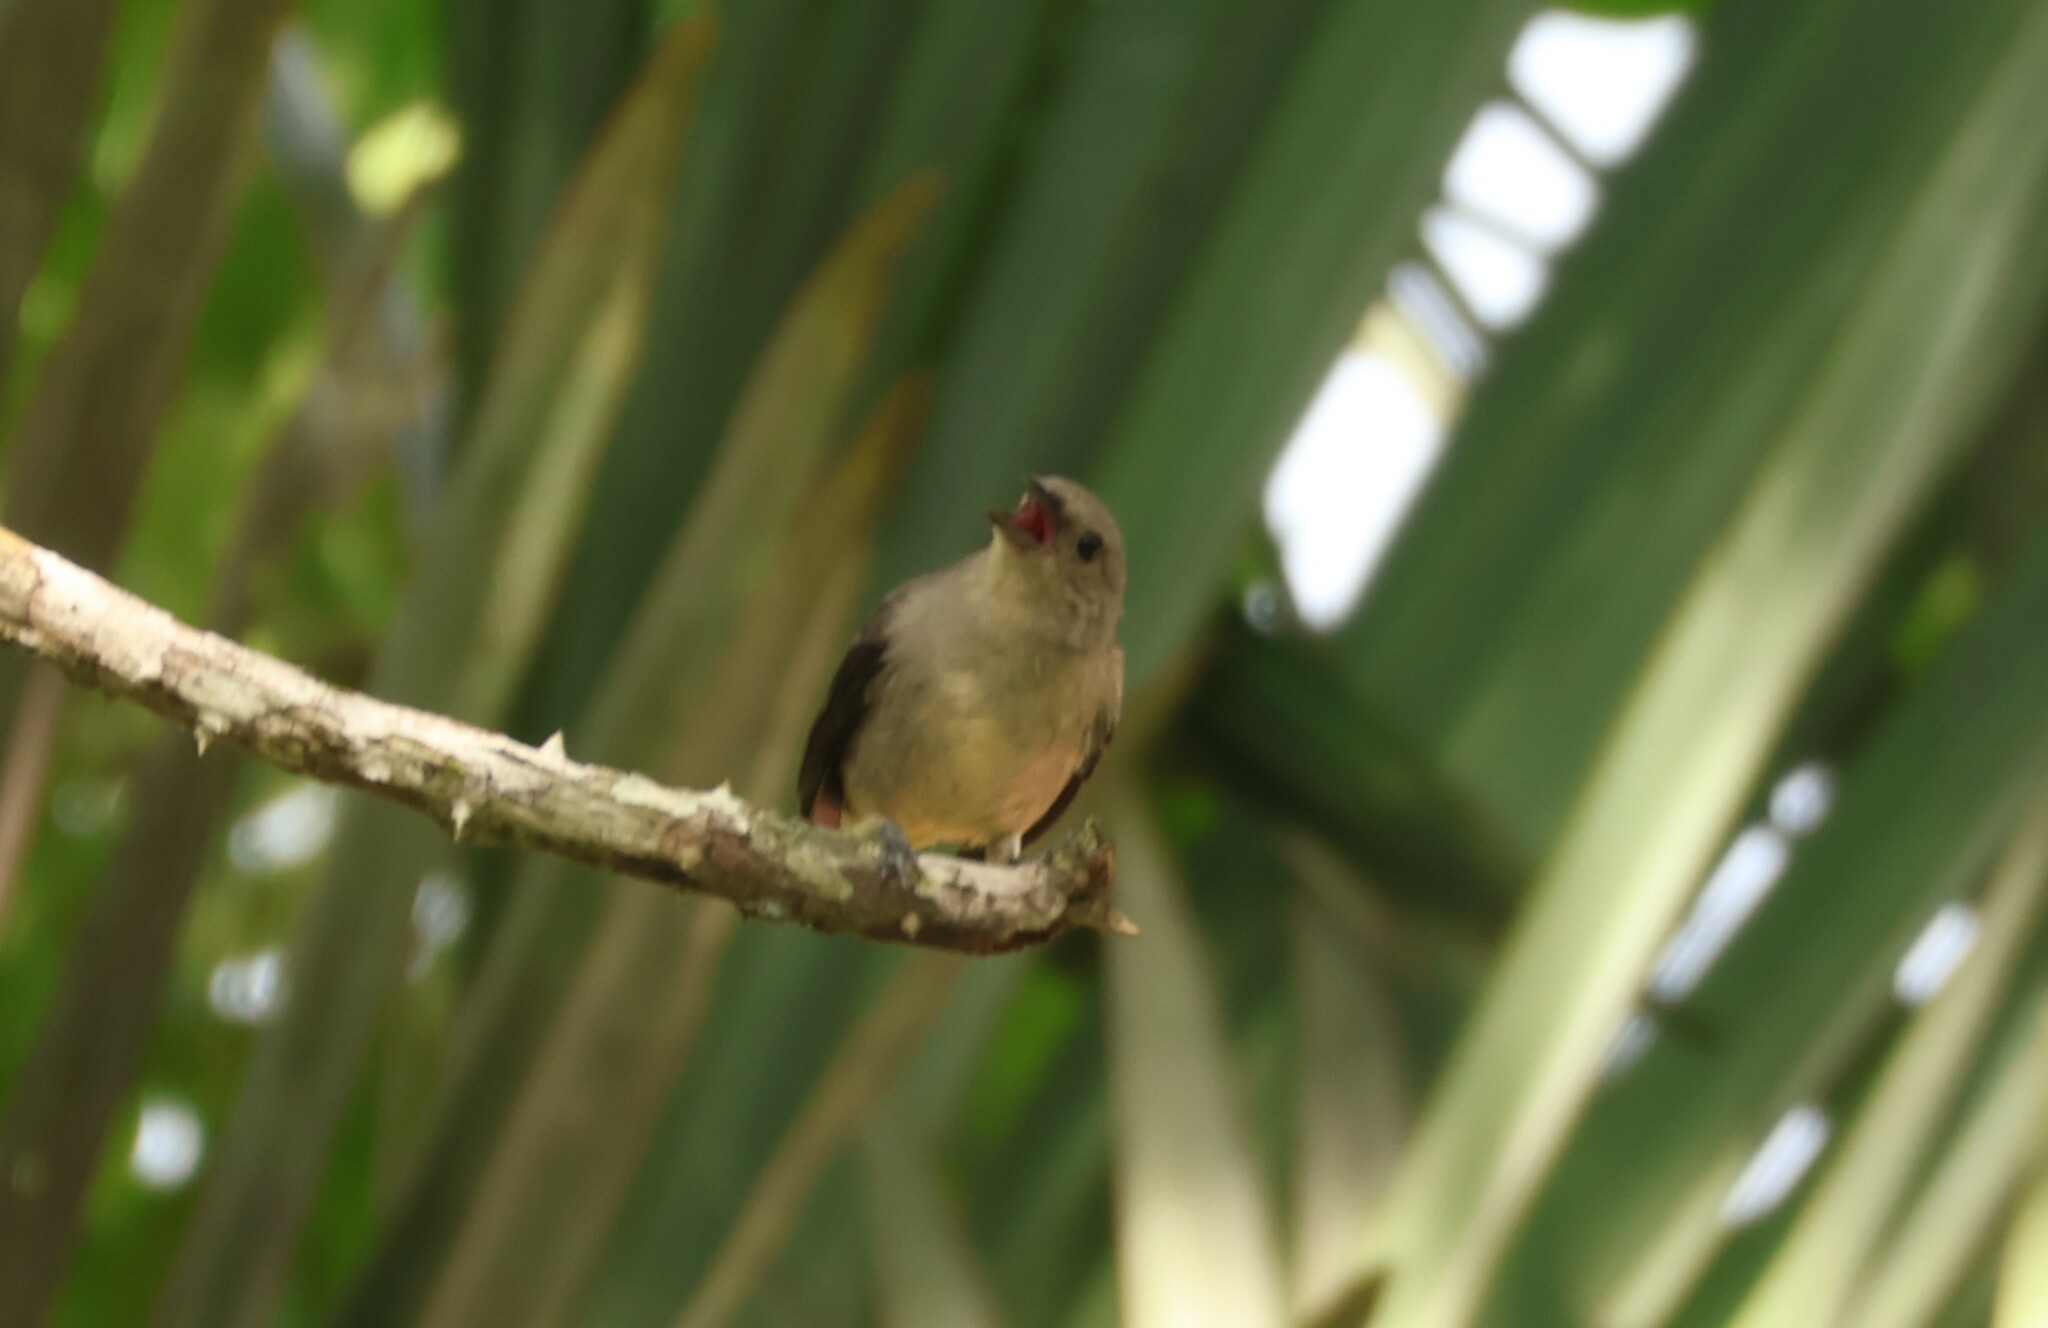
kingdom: Animalia
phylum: Chordata
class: Aves
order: Passeriformes
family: Thraupidae
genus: Tangara
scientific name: Tangara inornata
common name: Plain-colored tanager
